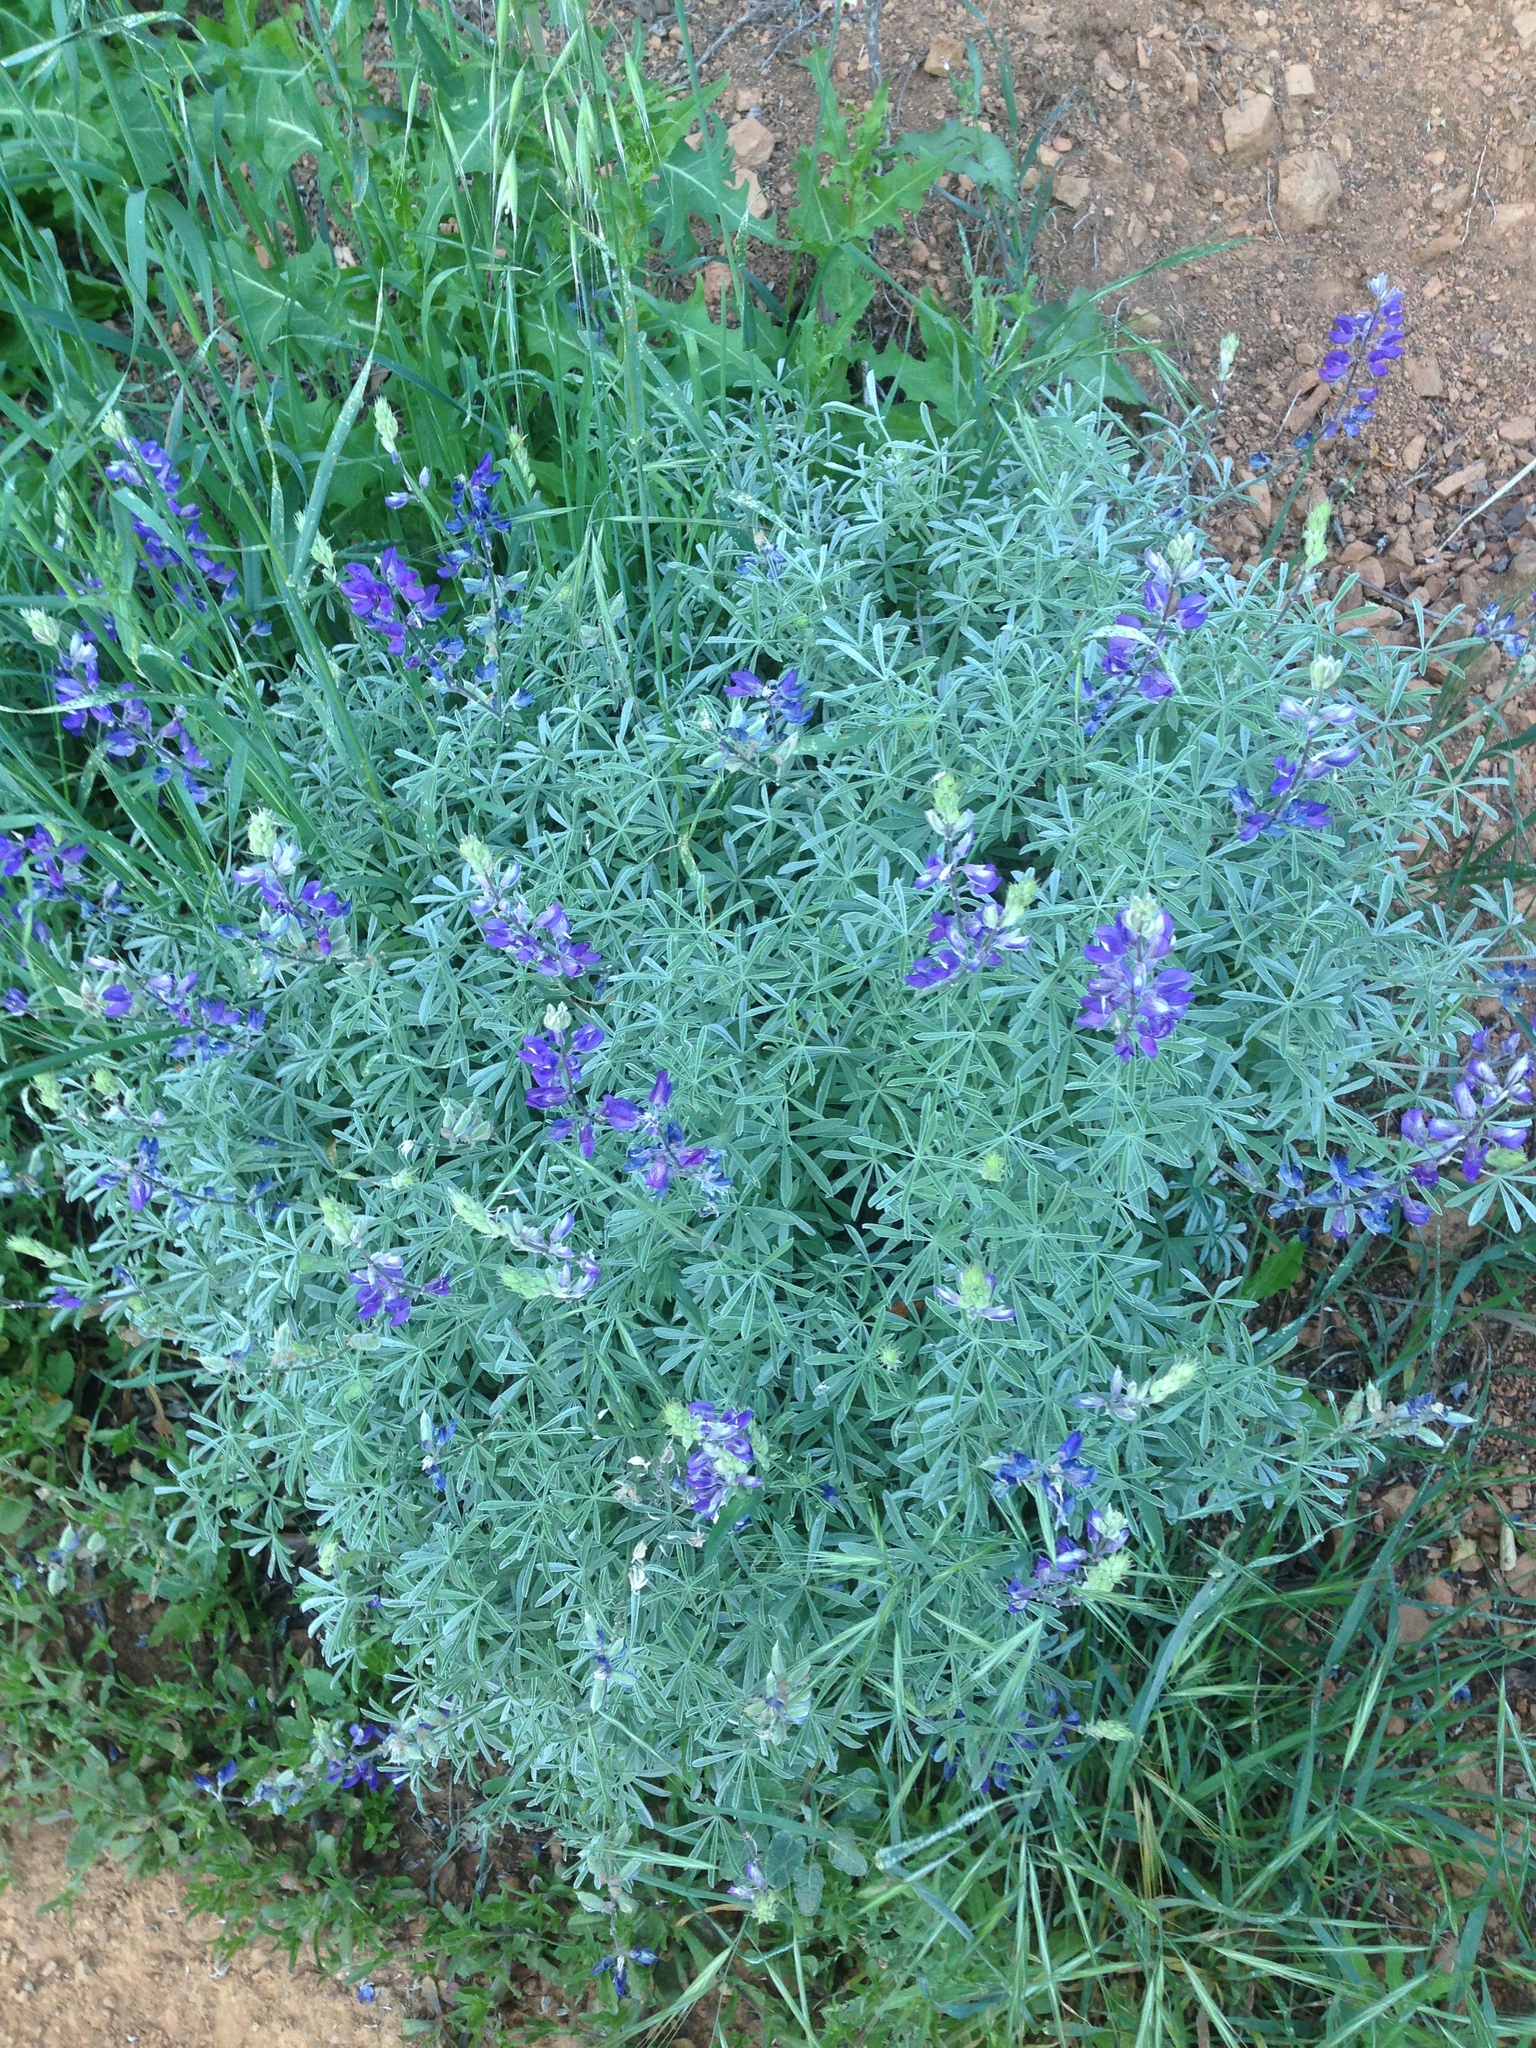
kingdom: Plantae
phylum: Tracheophyta
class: Magnoliopsida
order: Fabales
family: Fabaceae
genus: Lupinus
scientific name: Lupinus albifrons
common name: Foothill lupine
